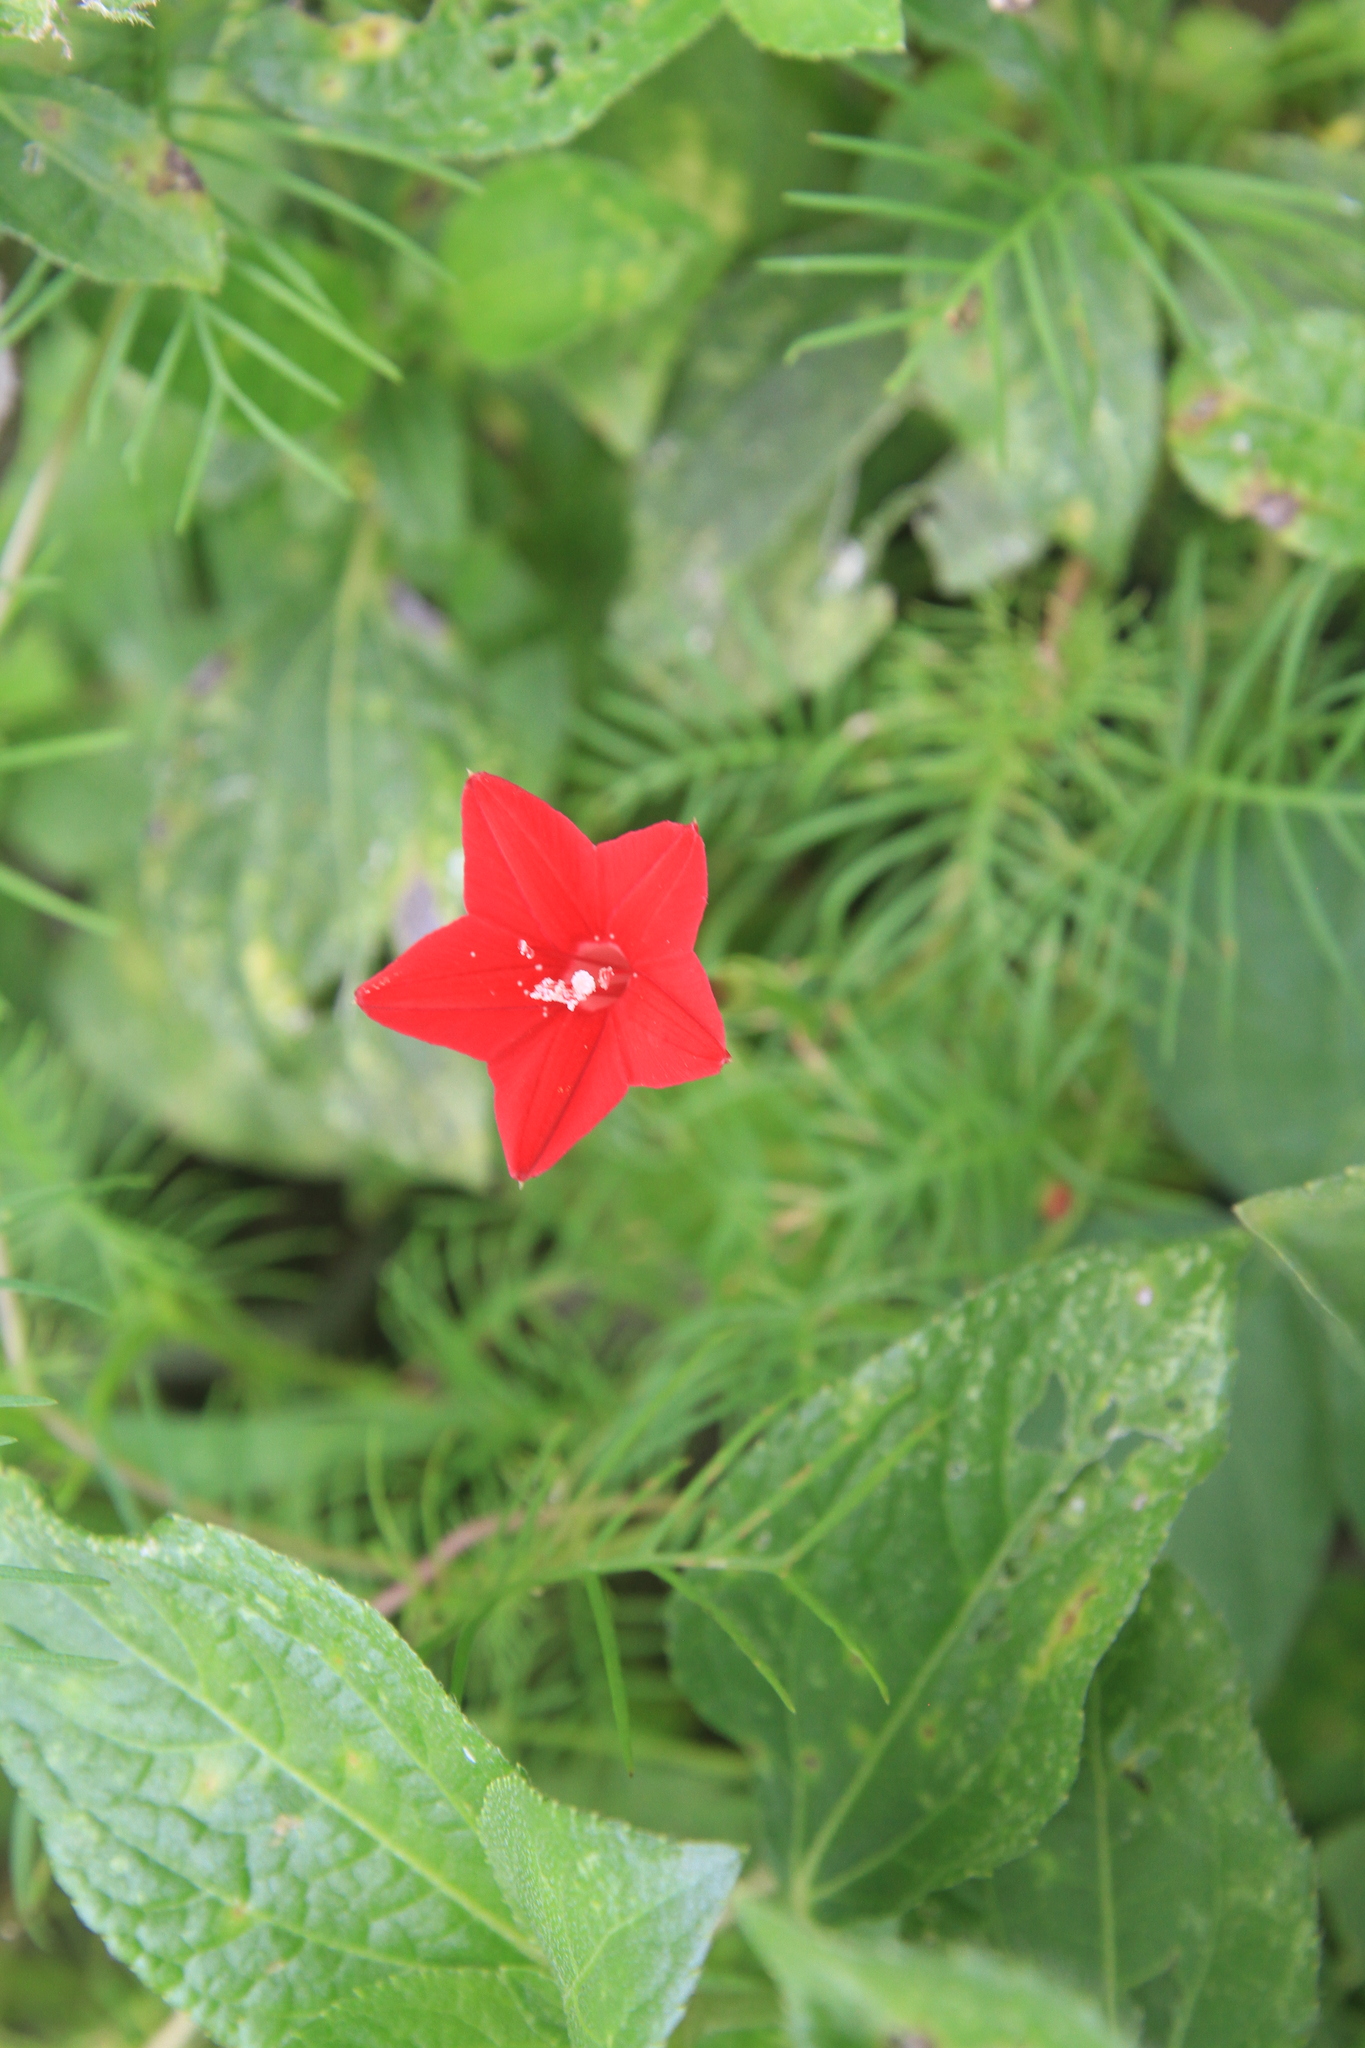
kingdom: Plantae
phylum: Tracheophyta
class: Magnoliopsida
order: Solanales
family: Convolvulaceae
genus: Ipomoea
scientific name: Ipomoea quamoclit
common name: Cypress vine
